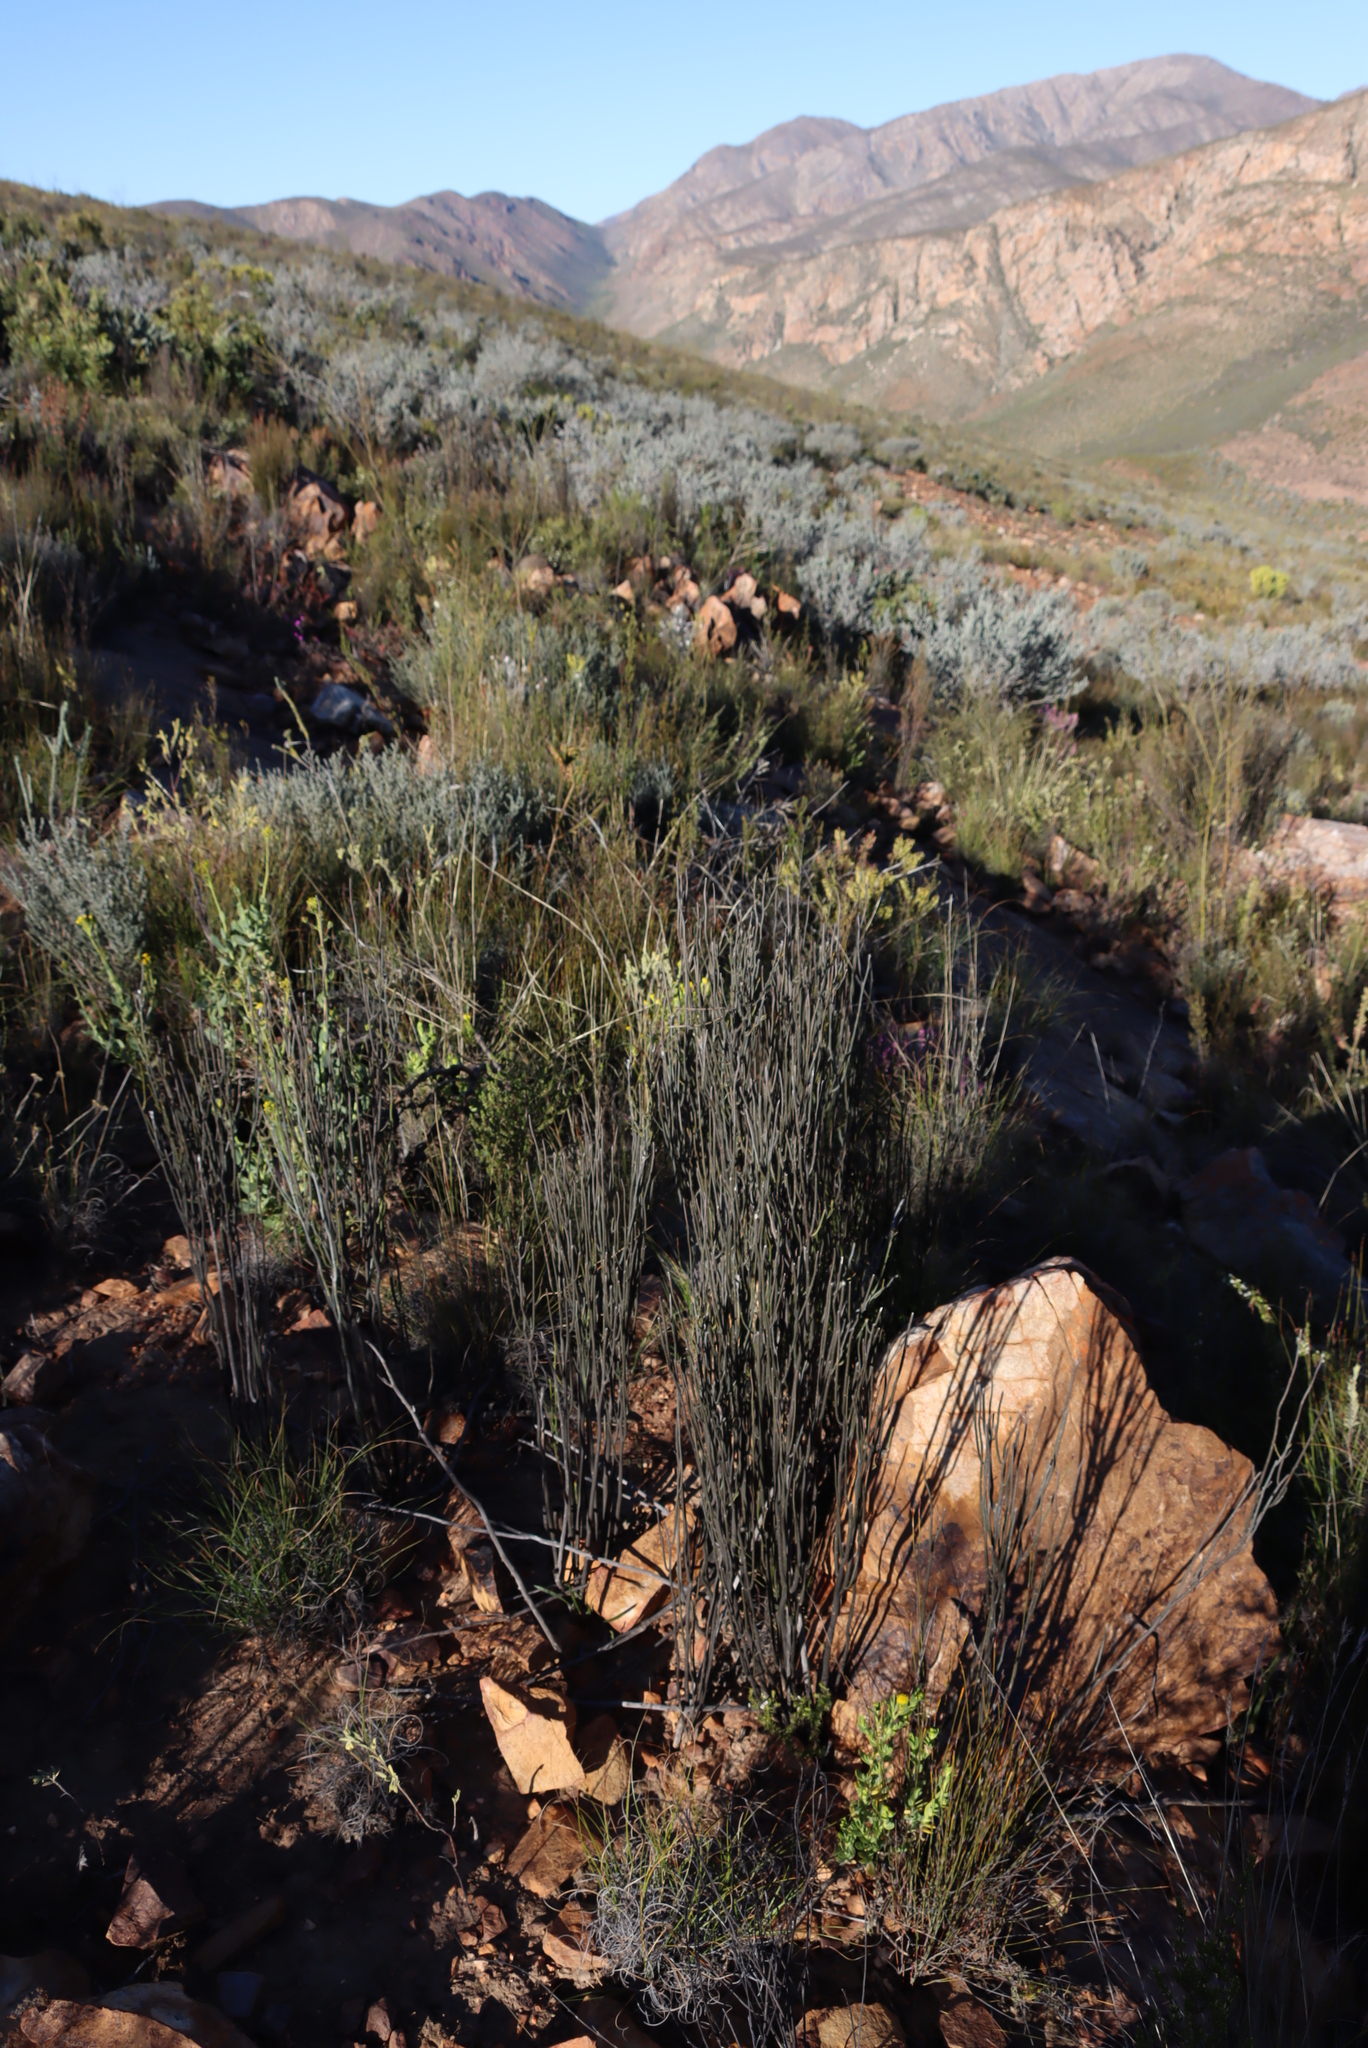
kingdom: Plantae
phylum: Tracheophyta
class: Magnoliopsida
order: Solanales
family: Montiniaceae
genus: Montinia
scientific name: Montinia caryophyllacea
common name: Wild clove-bush
